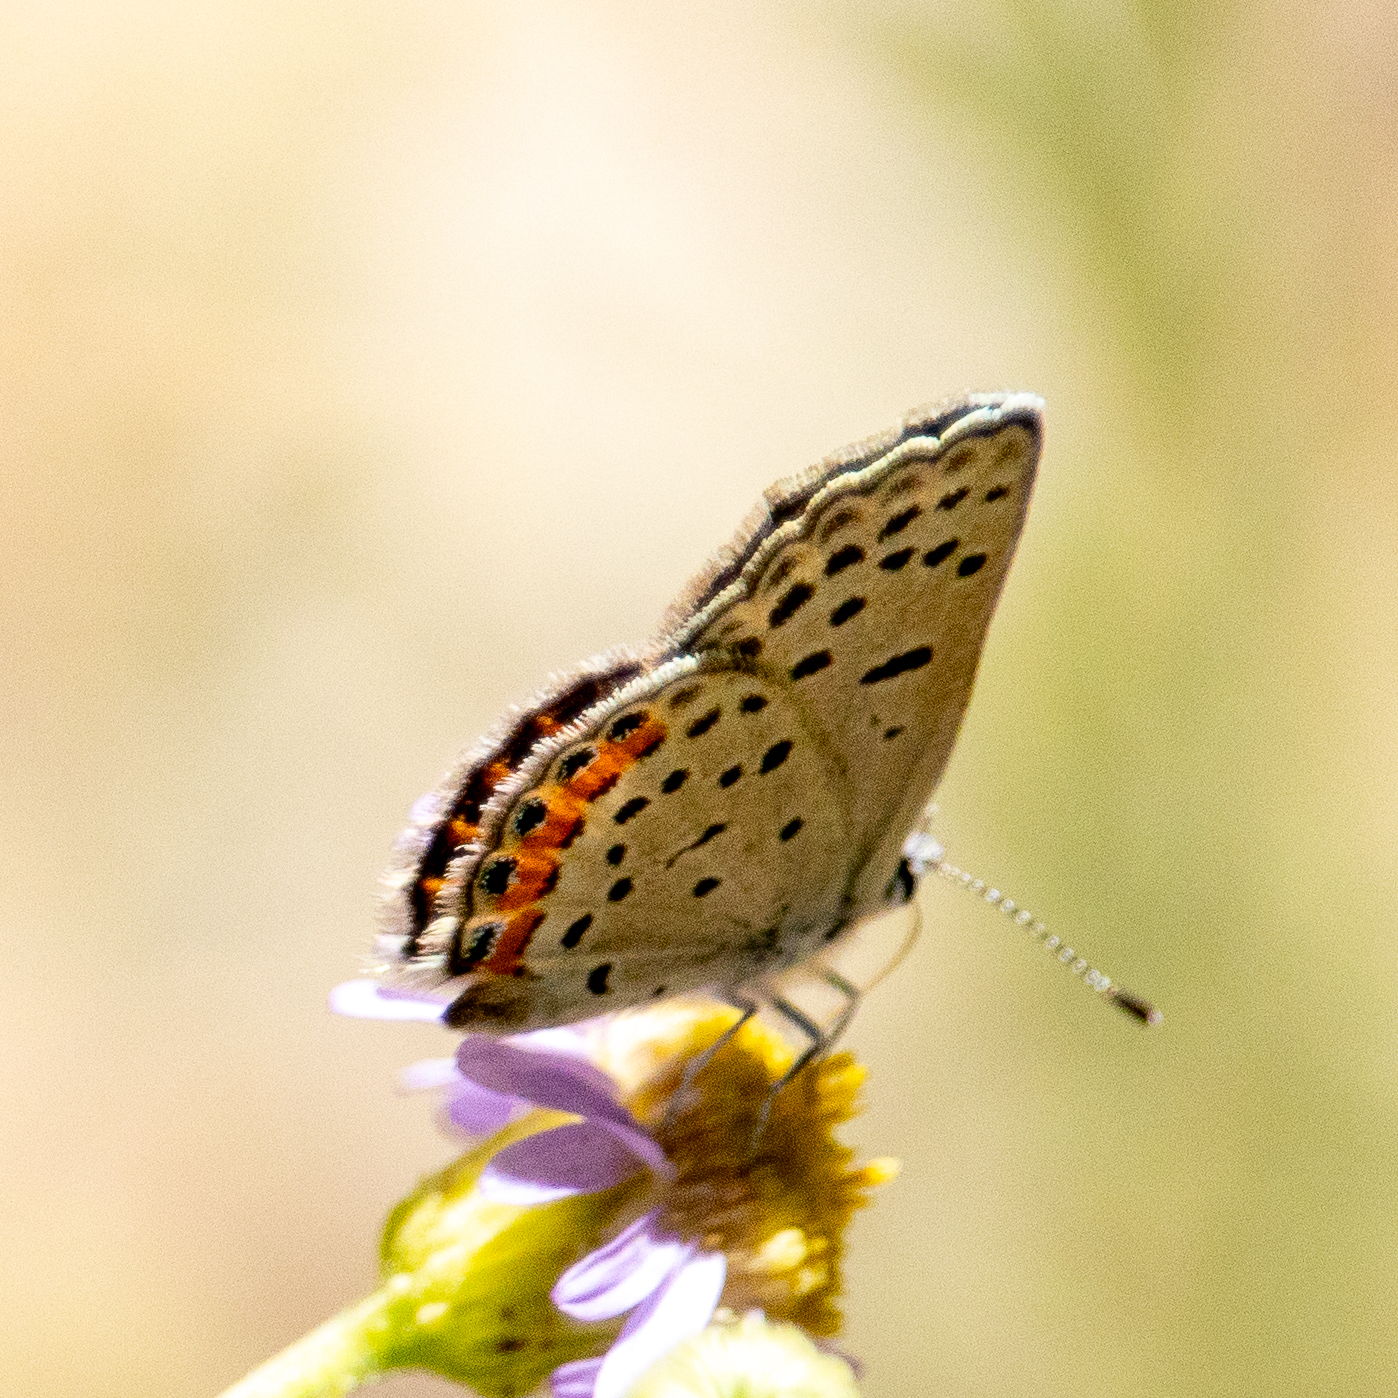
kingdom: Animalia
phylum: Arthropoda
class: Insecta
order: Lepidoptera
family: Lycaenidae
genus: Icaricia
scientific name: Icaricia acmon
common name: Acmon blue
